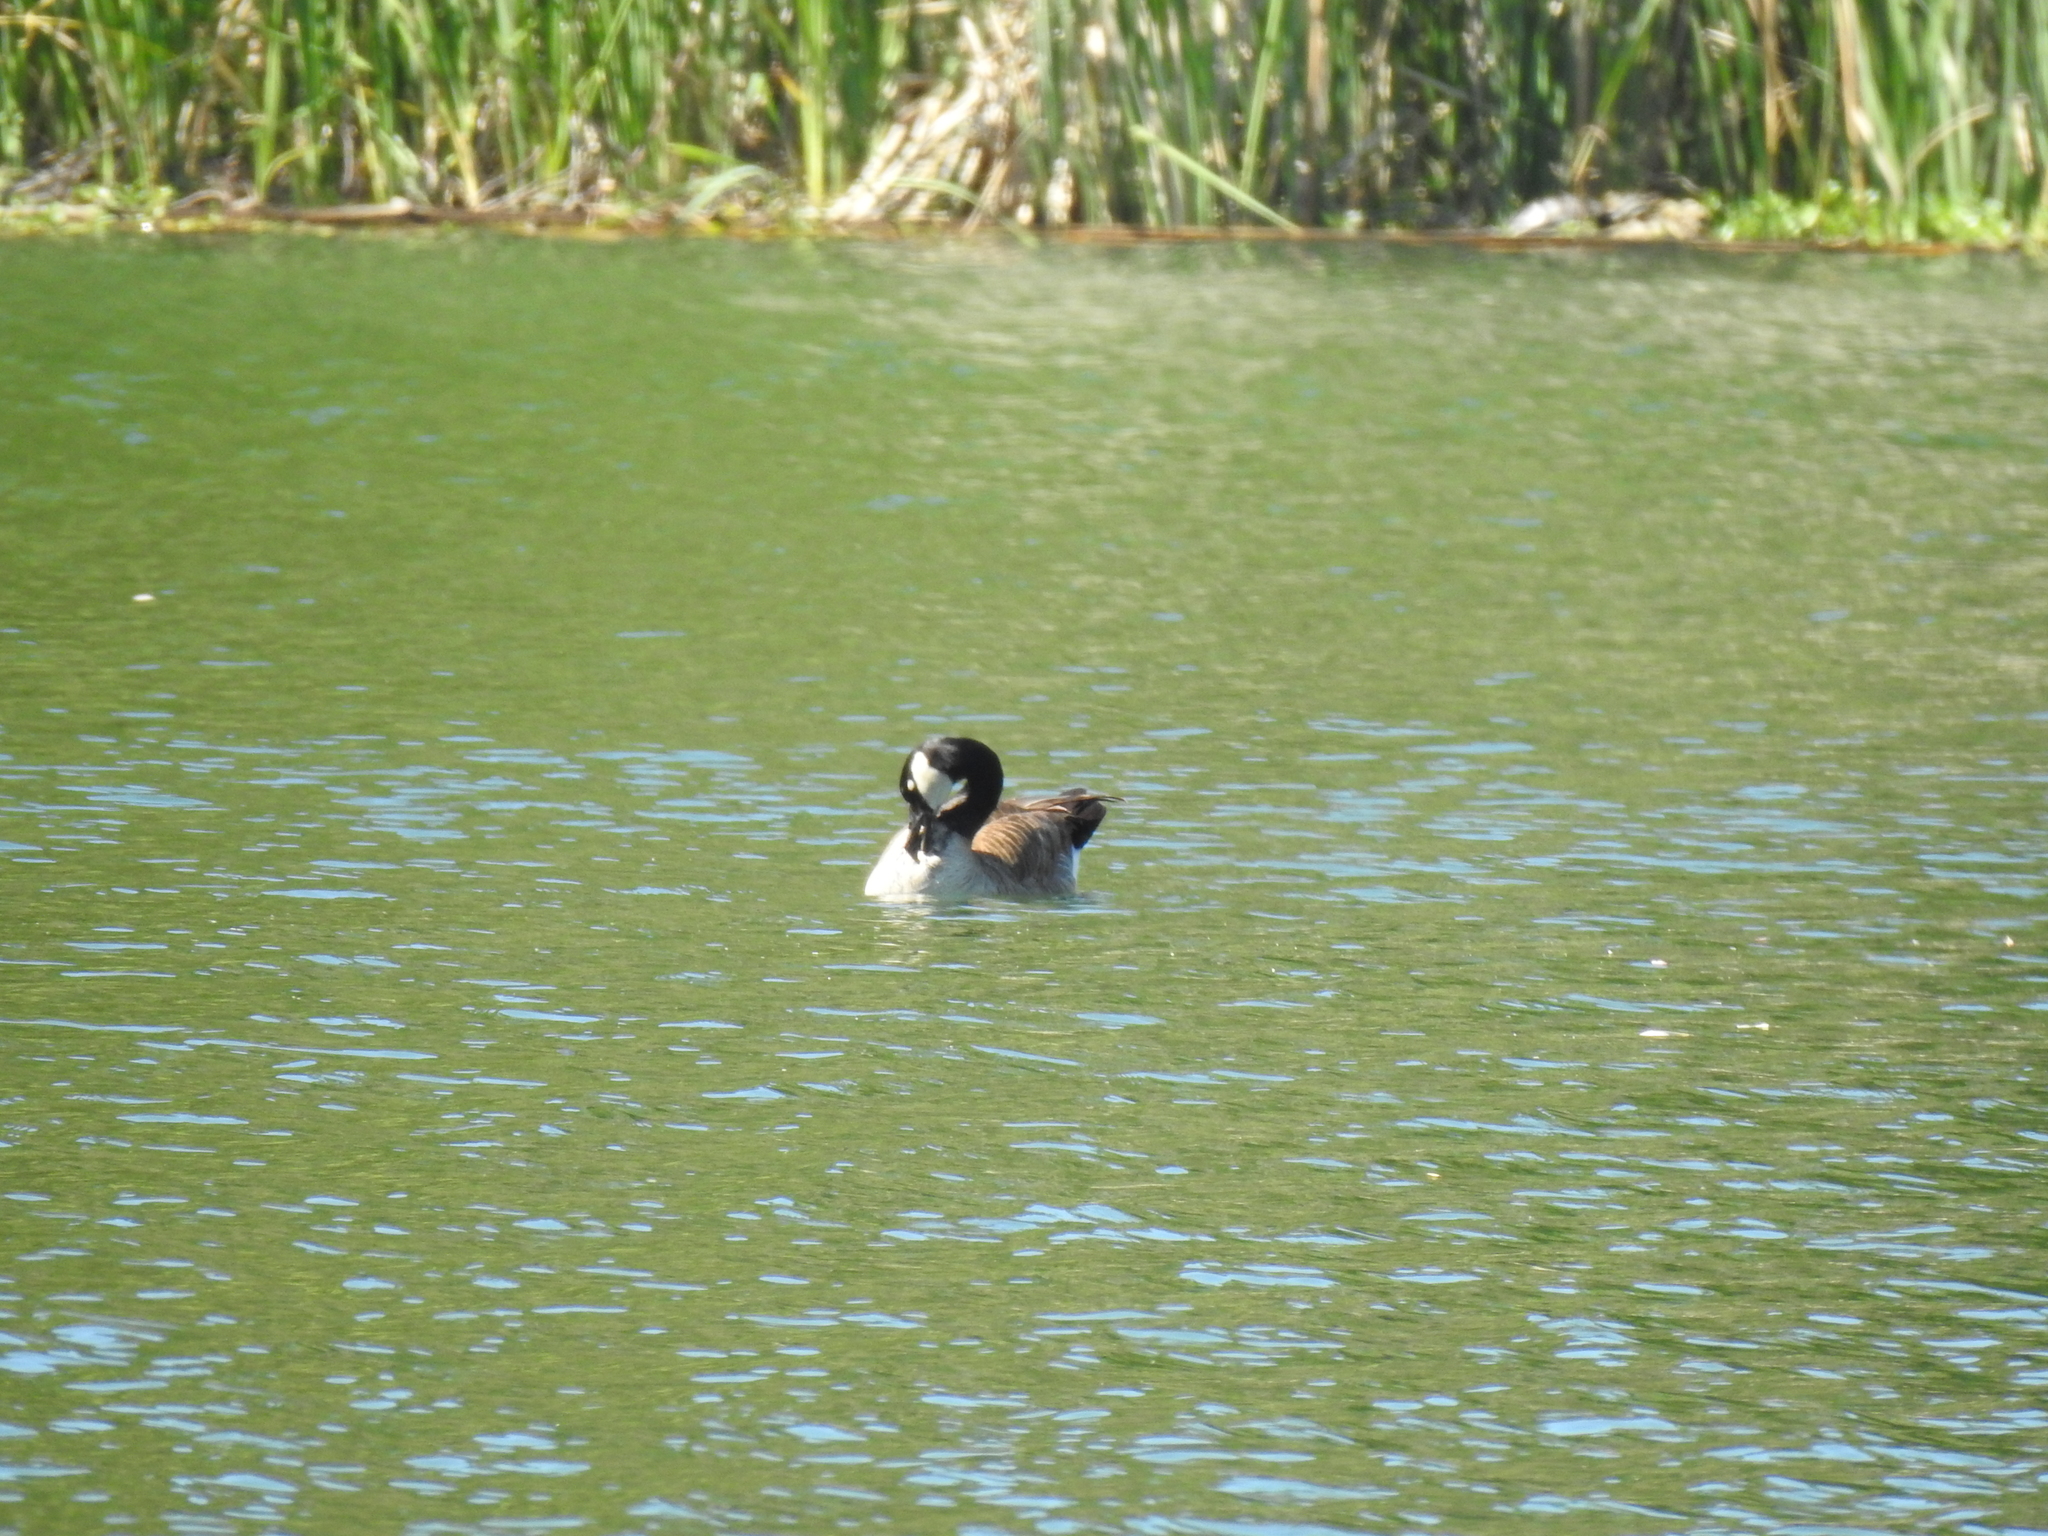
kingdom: Animalia
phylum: Chordata
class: Aves
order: Anseriformes
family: Anatidae
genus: Branta
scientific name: Branta canadensis
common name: Canada goose
